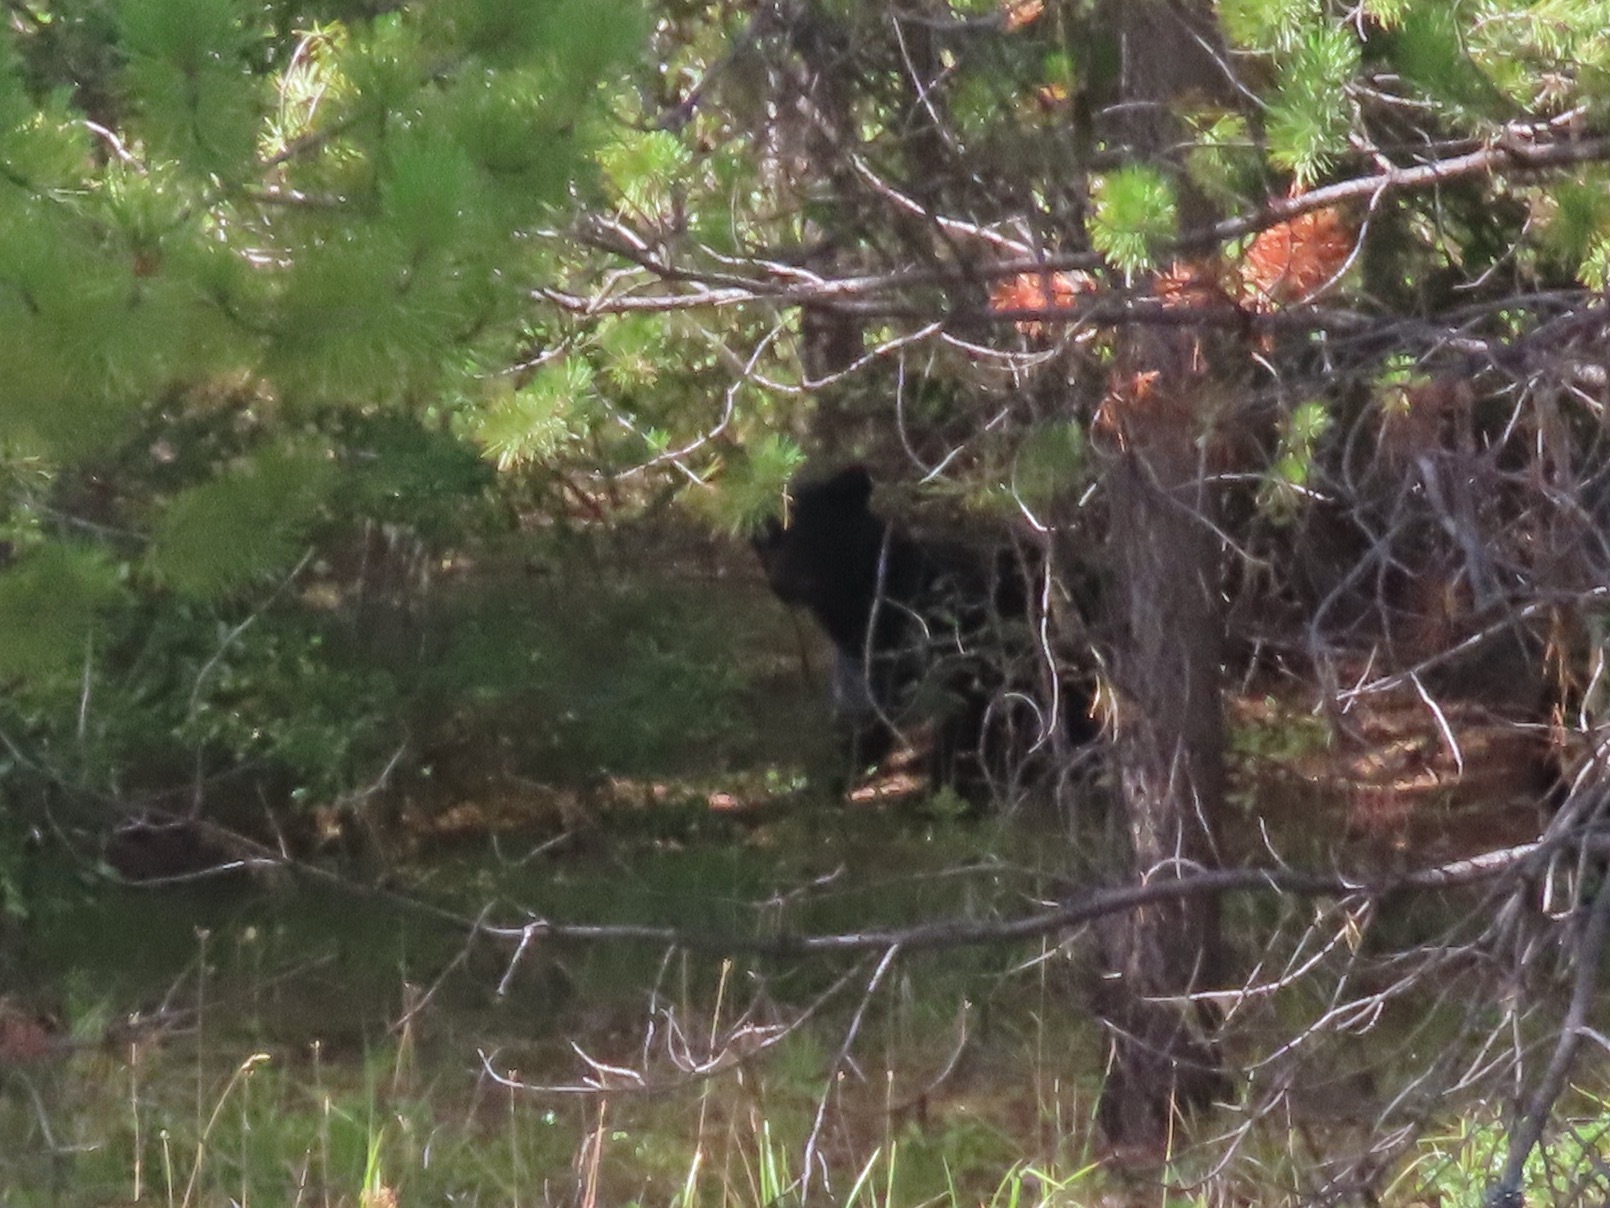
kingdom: Animalia
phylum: Chordata
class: Mammalia
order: Carnivora
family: Ursidae
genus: Ursus
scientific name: Ursus americanus
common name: American black bear
